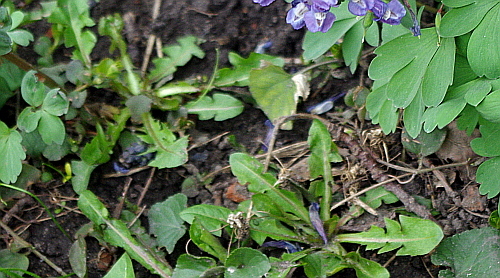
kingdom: Plantae
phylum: Tracheophyta
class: Magnoliopsida
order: Asterales
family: Asteraceae
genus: Taraxacum
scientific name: Taraxacum officinale
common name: Common dandelion
